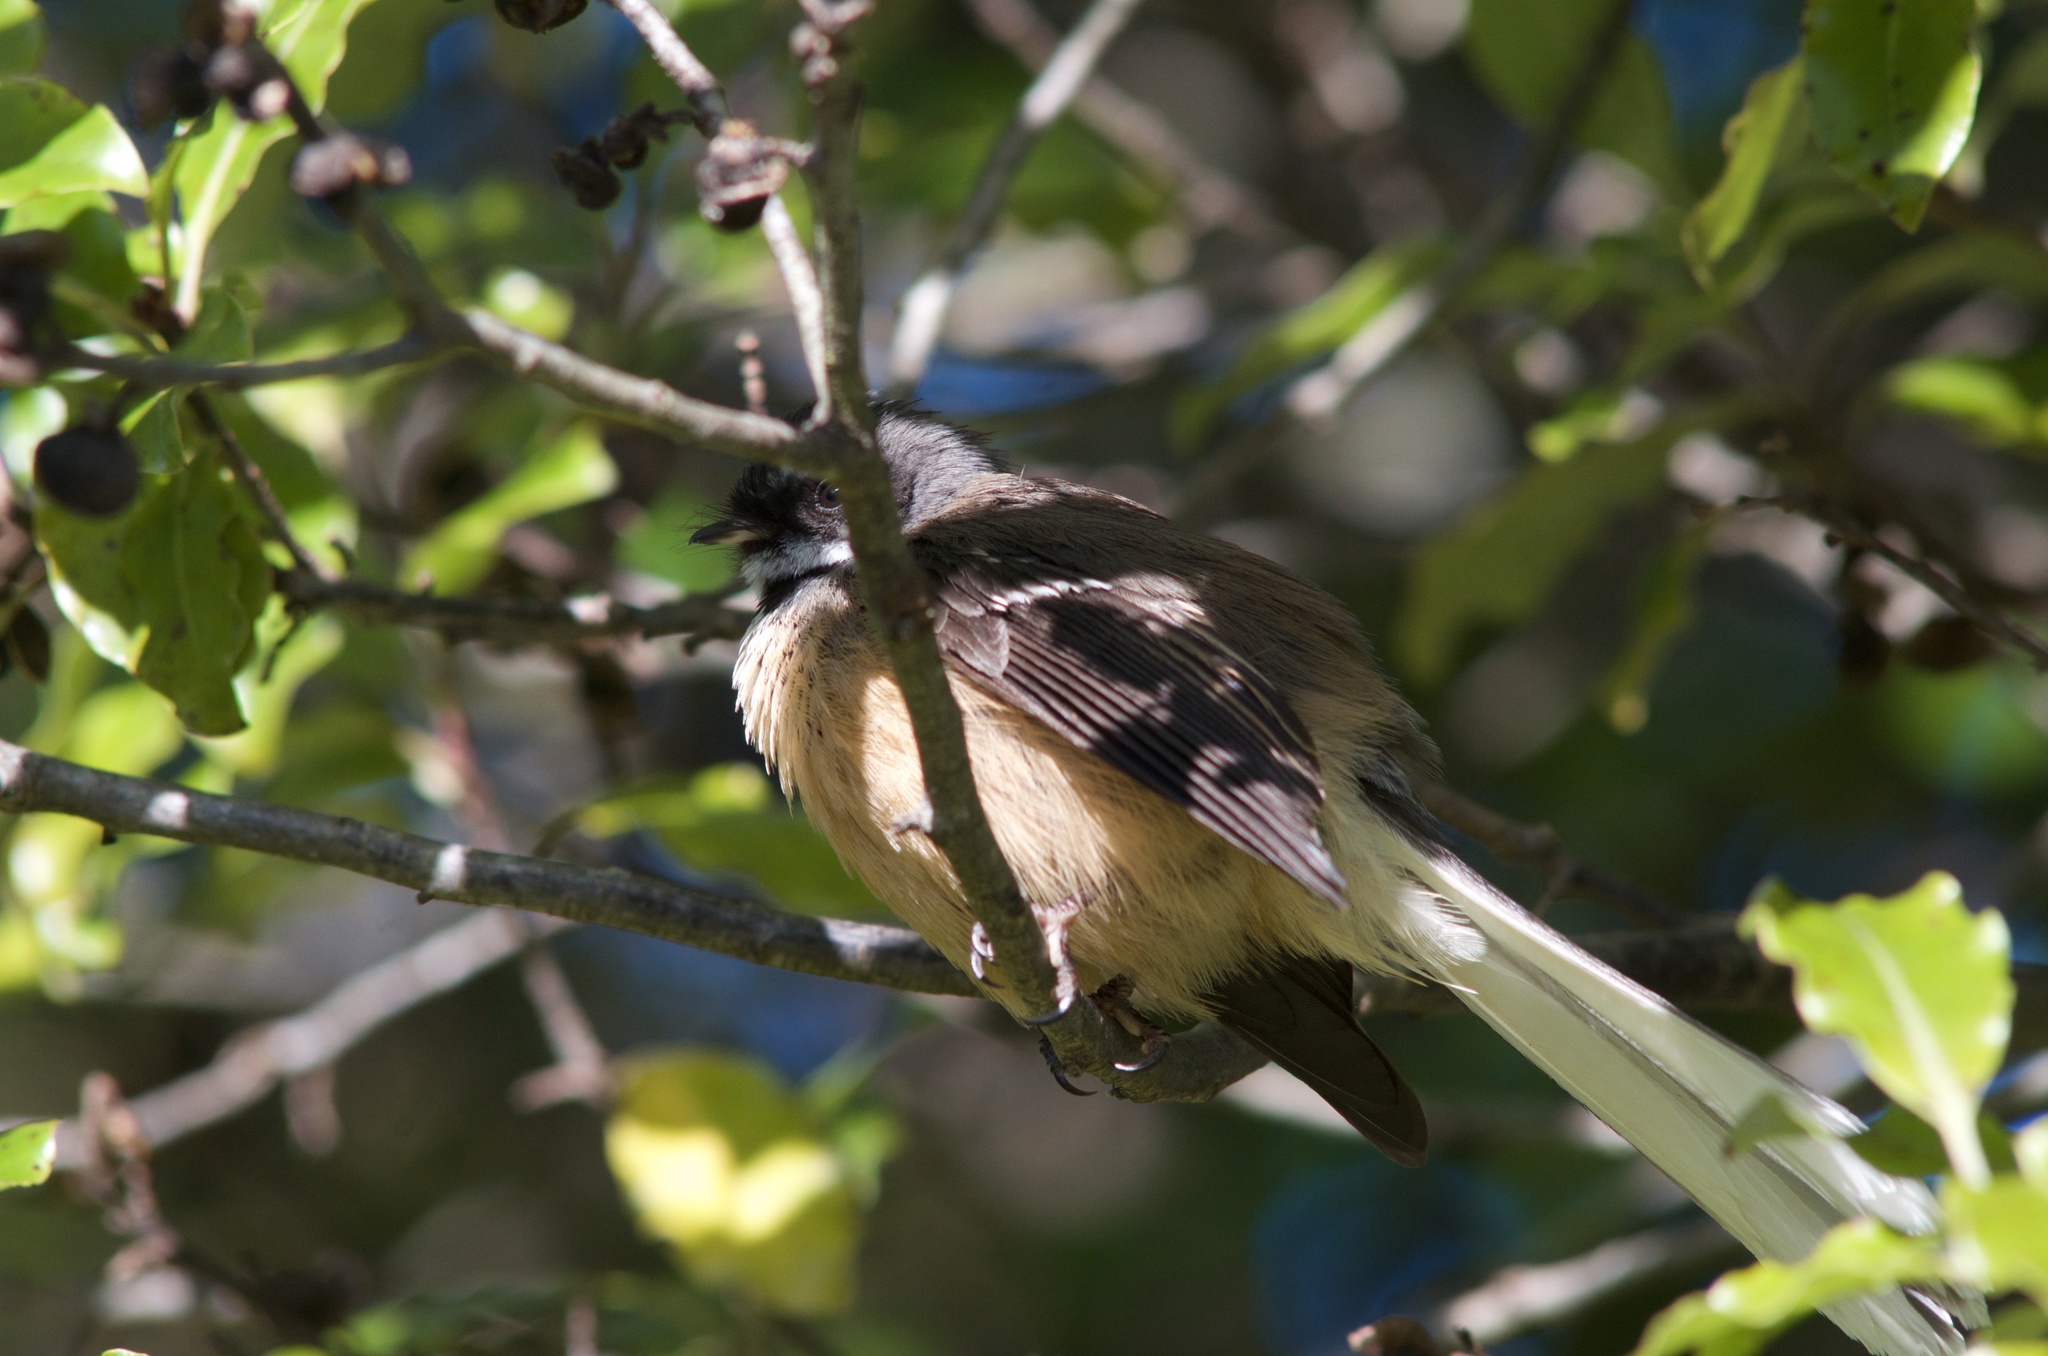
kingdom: Animalia
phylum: Chordata
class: Aves
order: Passeriformes
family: Rhipiduridae
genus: Rhipidura
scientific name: Rhipidura fuliginosa
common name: New zealand fantail
